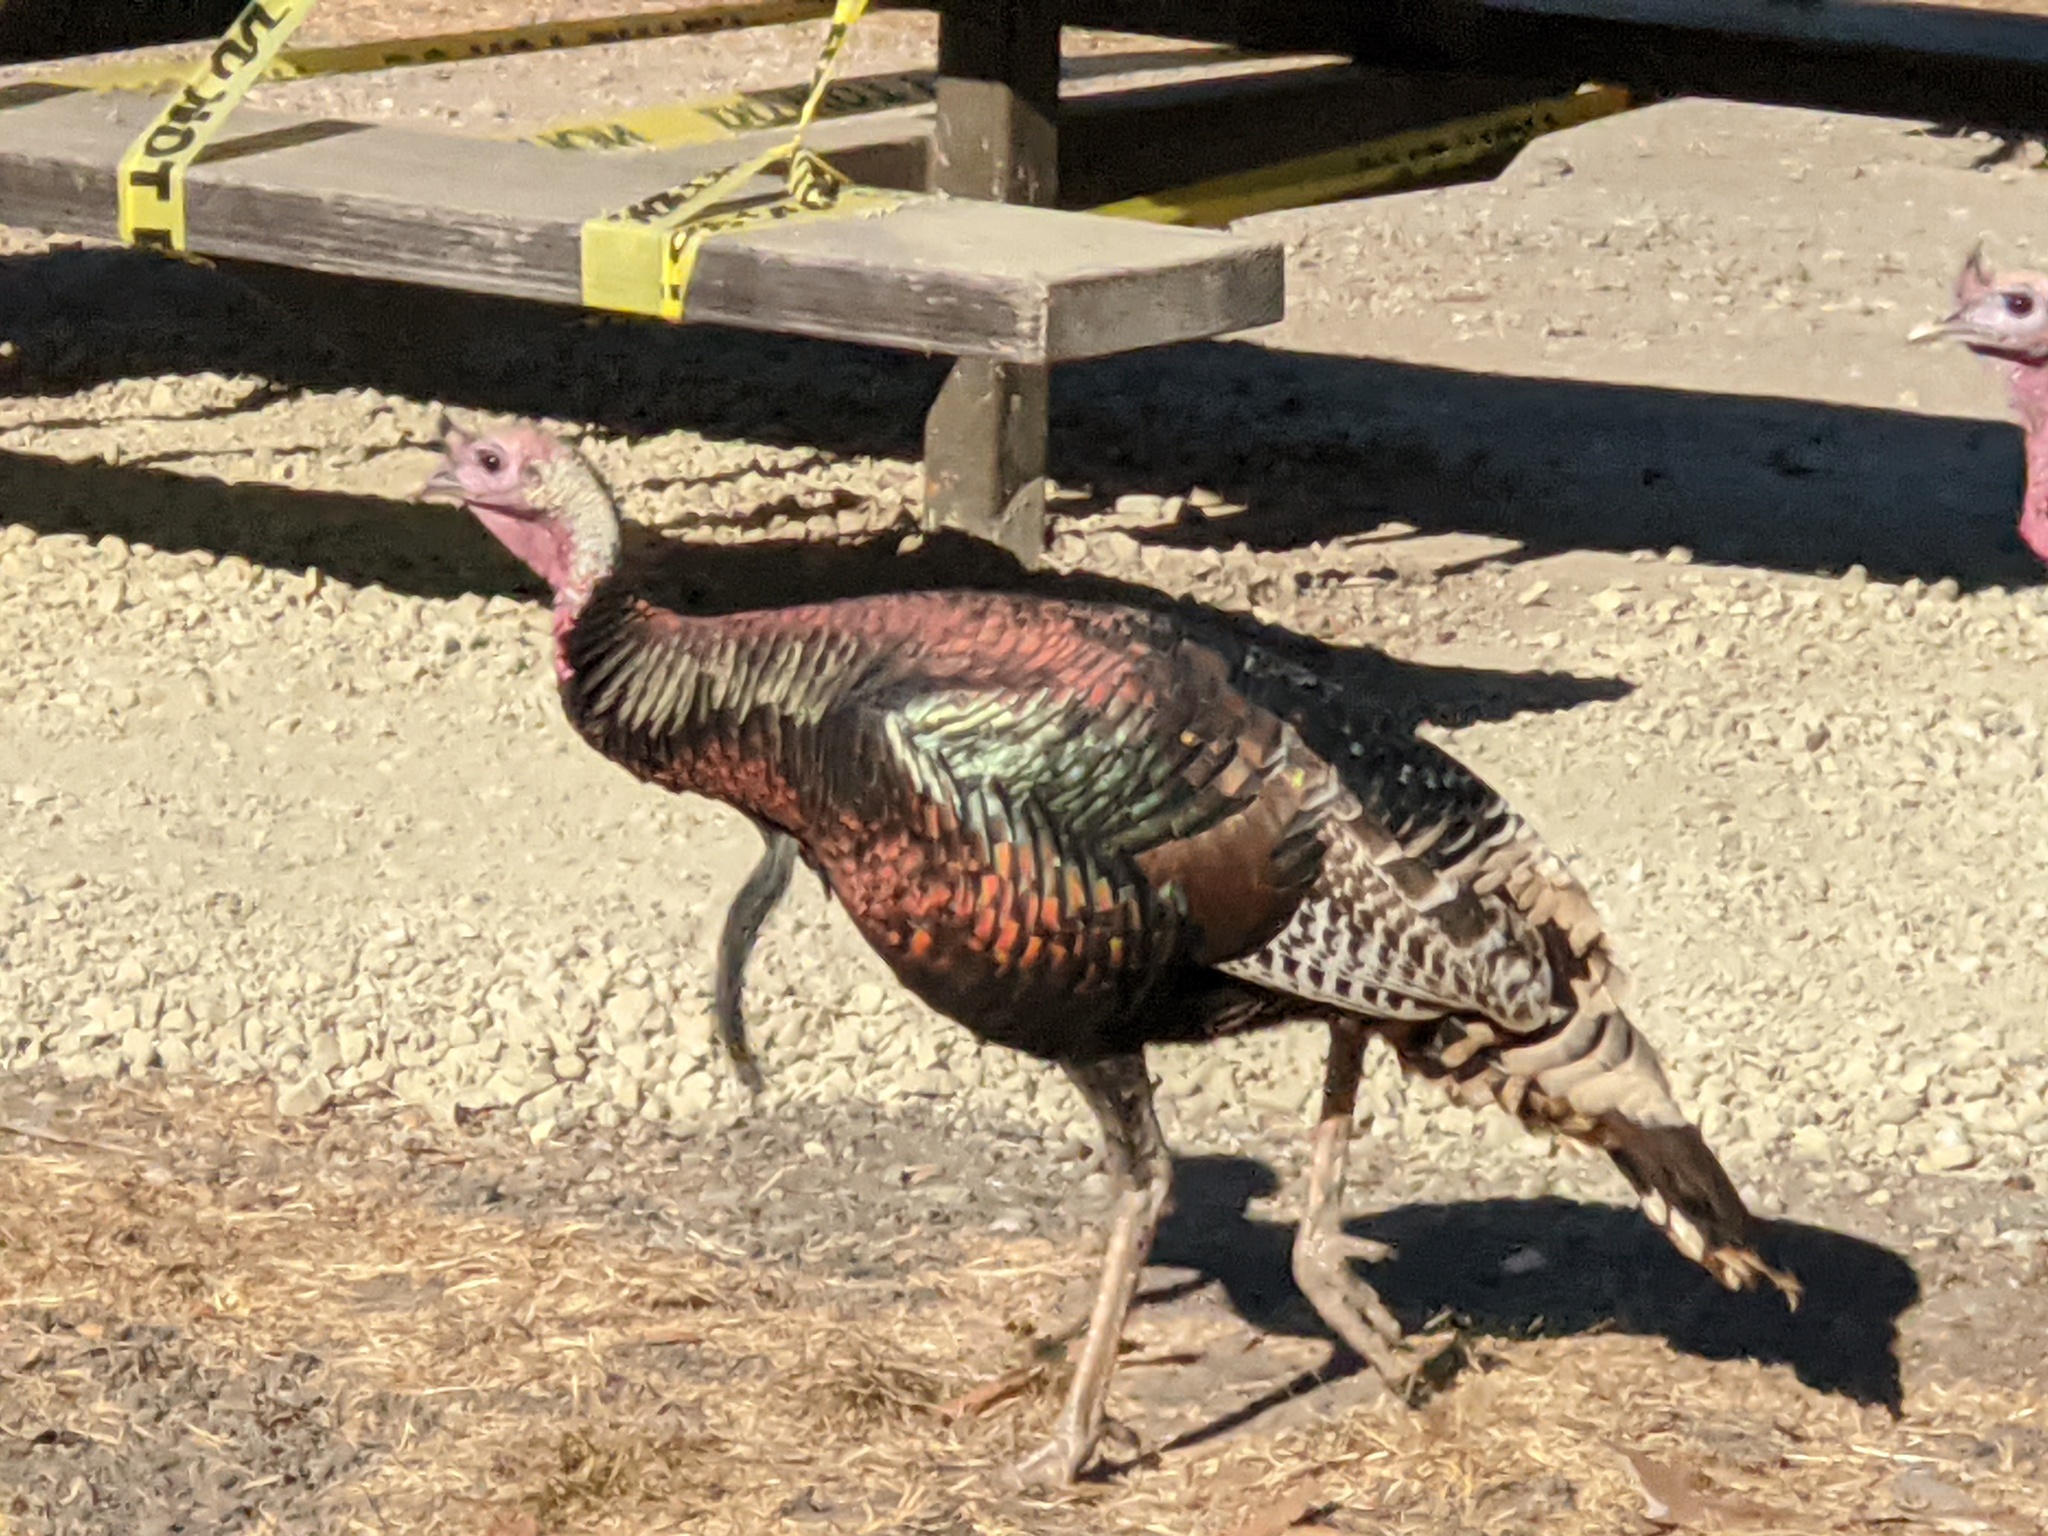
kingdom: Animalia
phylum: Chordata
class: Aves
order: Galliformes
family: Phasianidae
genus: Meleagris
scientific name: Meleagris gallopavo
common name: Wild turkey
